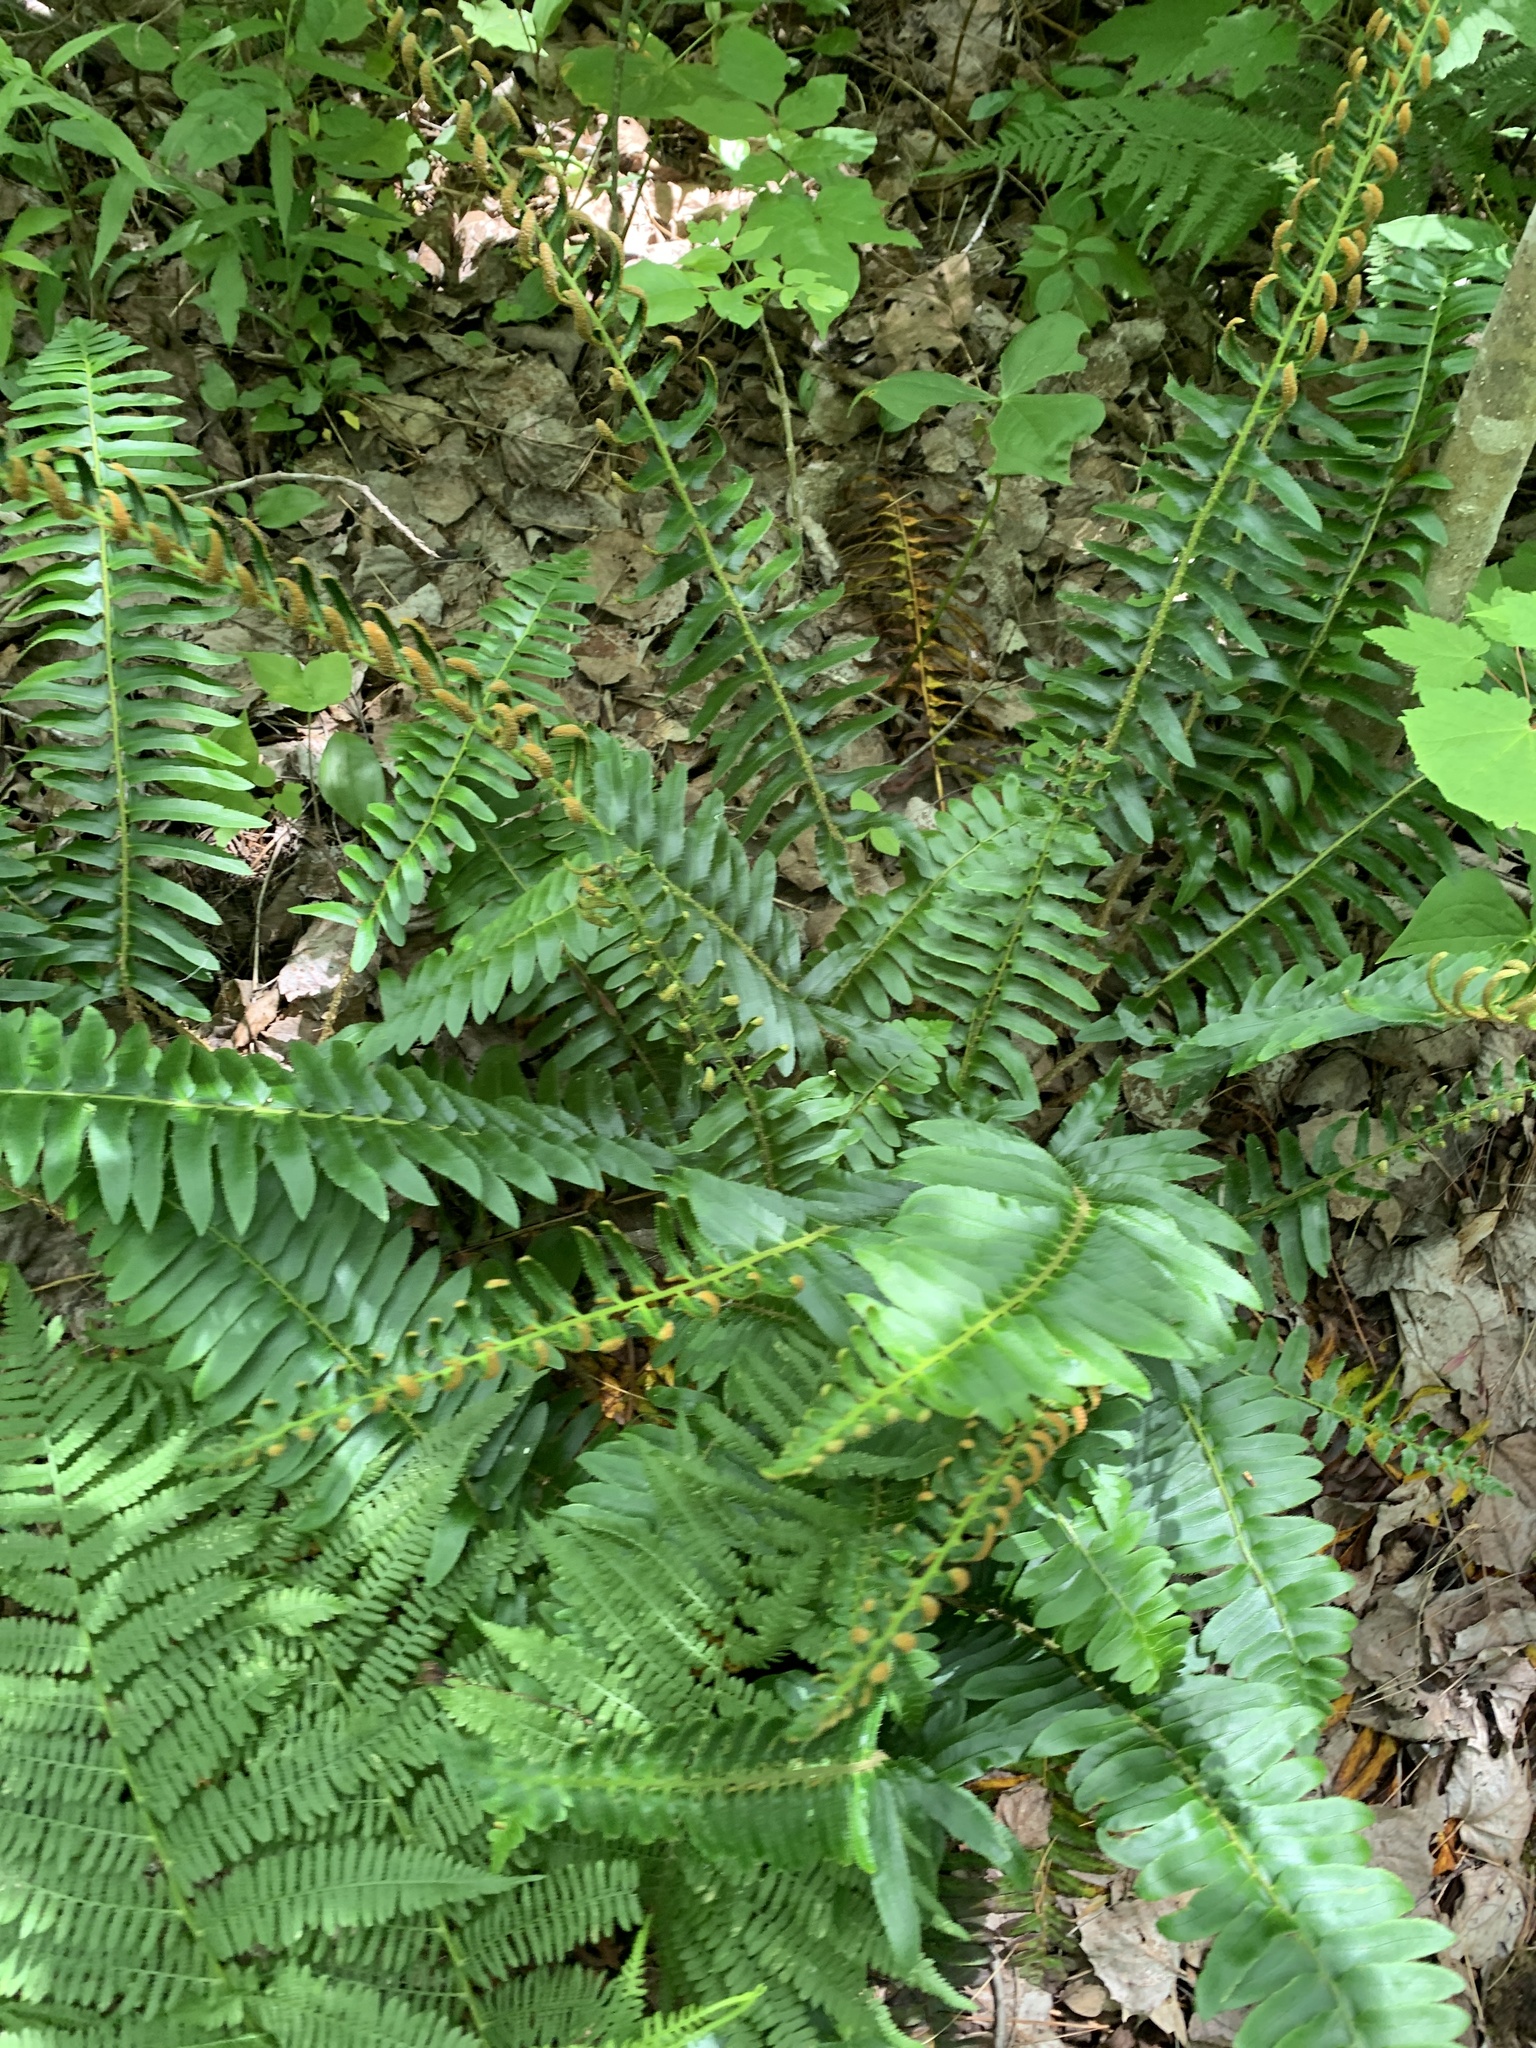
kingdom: Plantae
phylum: Tracheophyta
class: Polypodiopsida
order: Polypodiales
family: Dryopteridaceae
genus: Polystichum
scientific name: Polystichum acrostichoides
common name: Christmas fern
